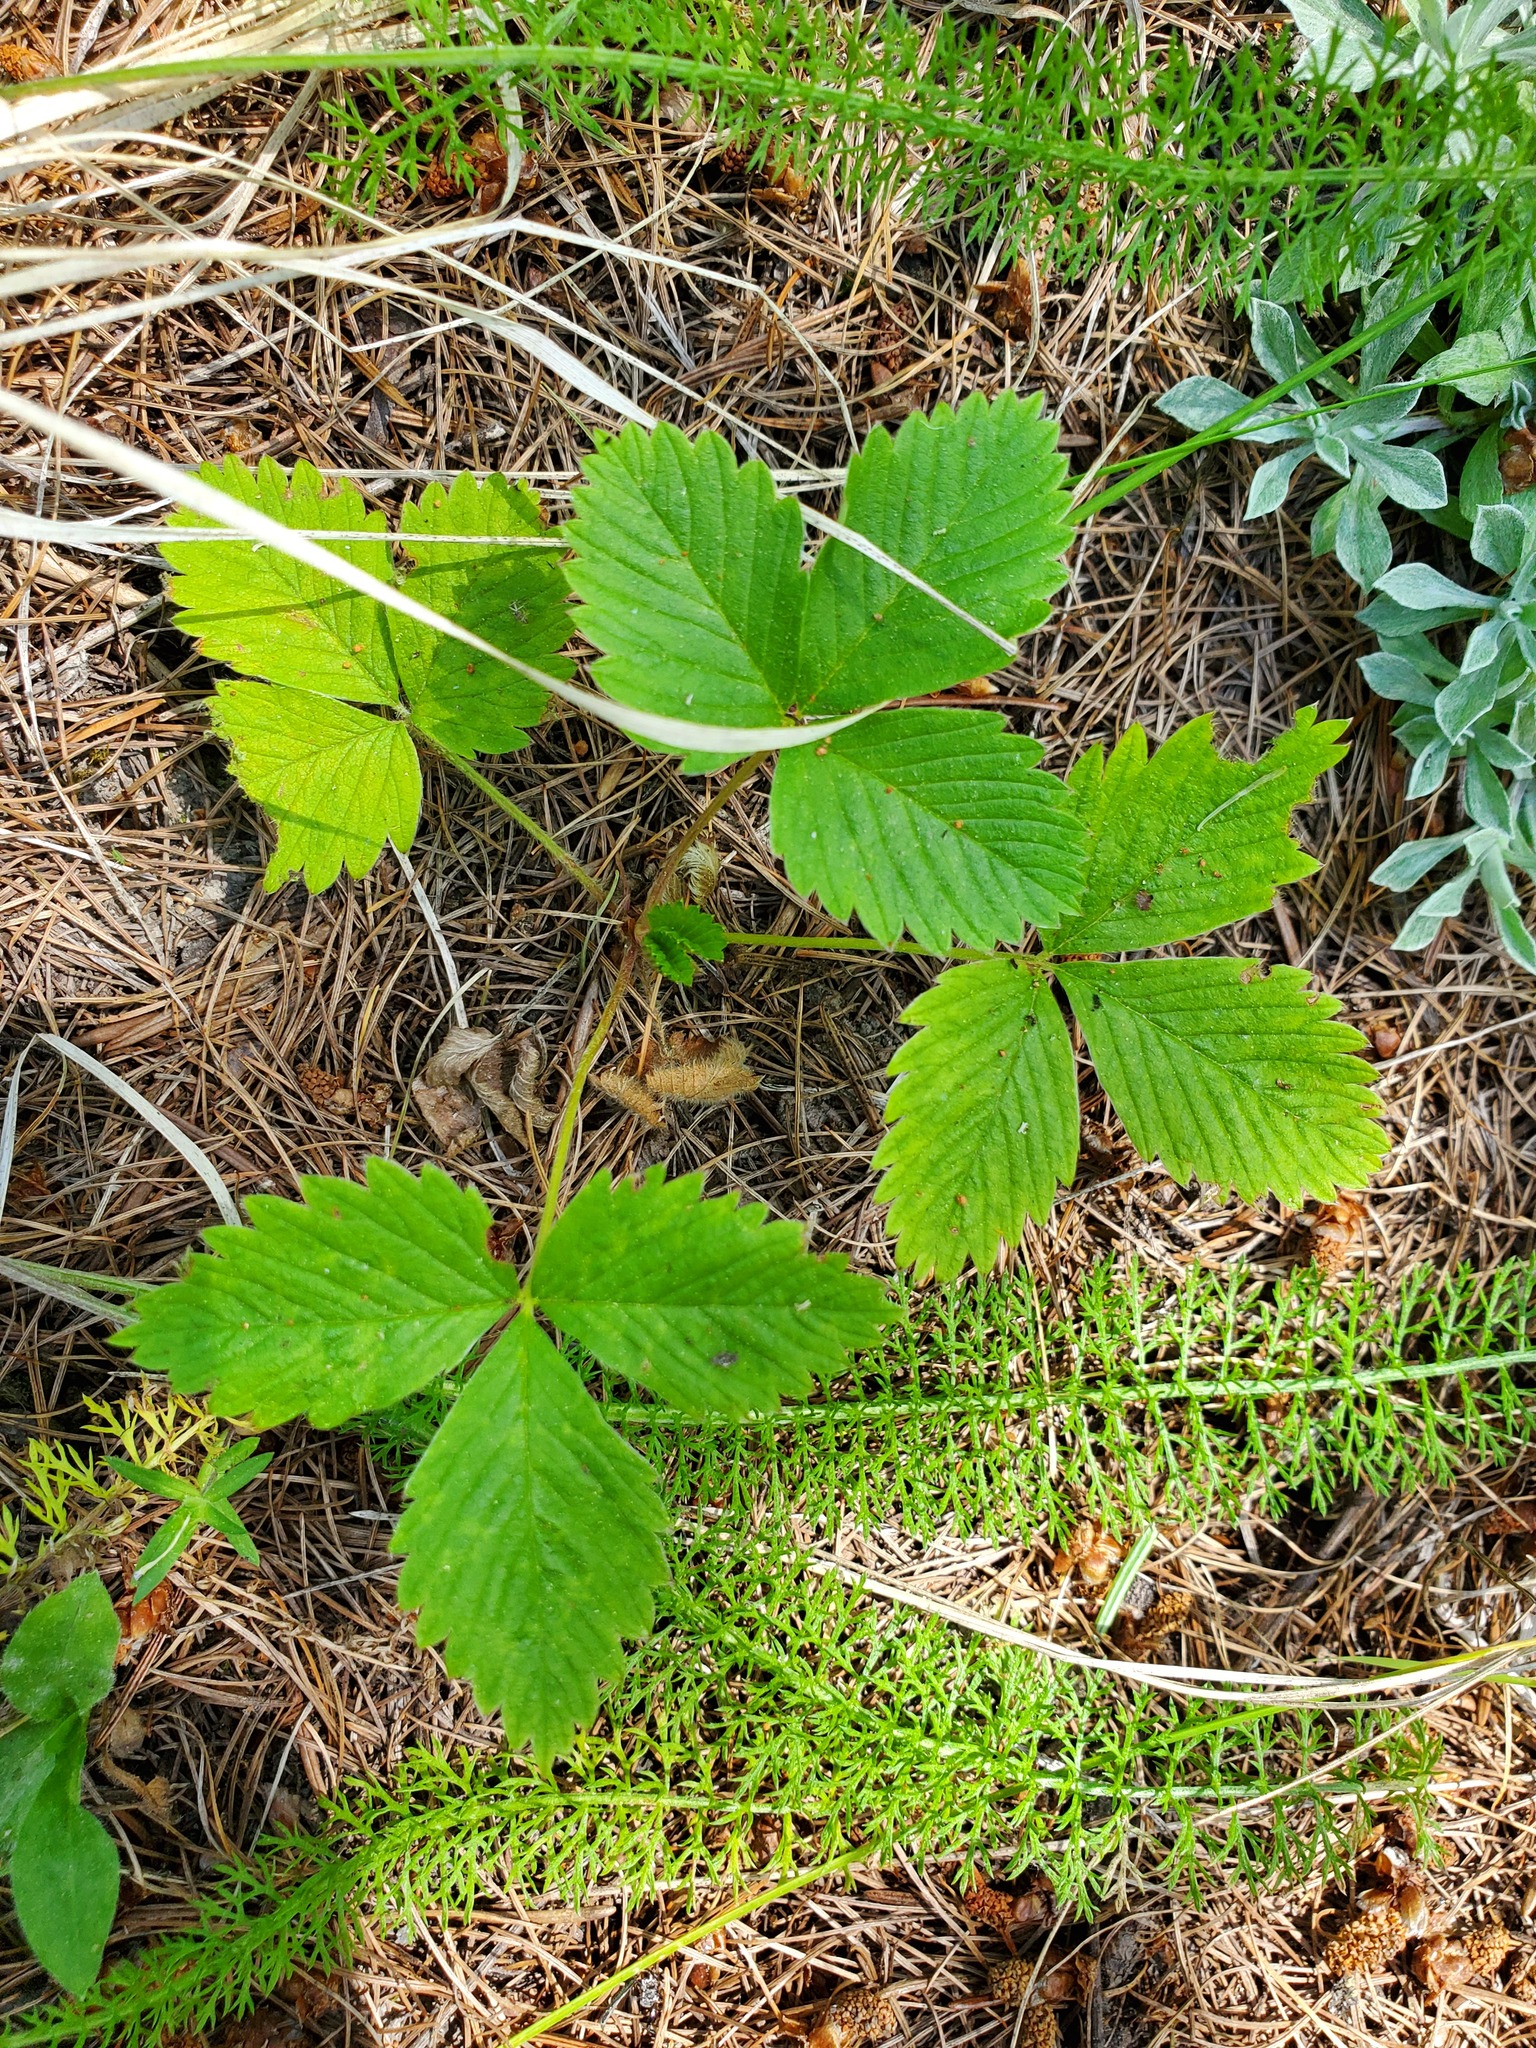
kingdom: Plantae
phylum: Tracheophyta
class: Magnoliopsida
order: Rosales
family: Rosaceae
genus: Fragaria
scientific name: Fragaria vesca
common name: Wild strawberry
